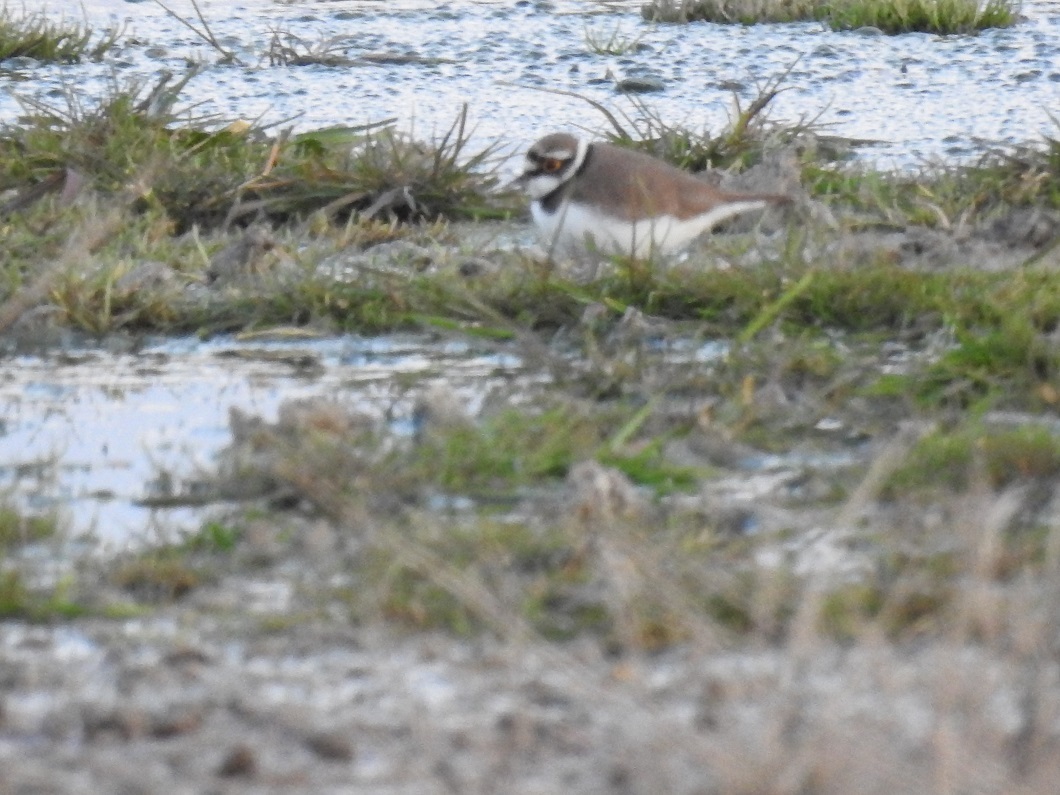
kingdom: Animalia
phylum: Chordata
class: Aves
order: Charadriiformes
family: Charadriidae
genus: Charadrius
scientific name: Charadrius dubius
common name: Little ringed plover
